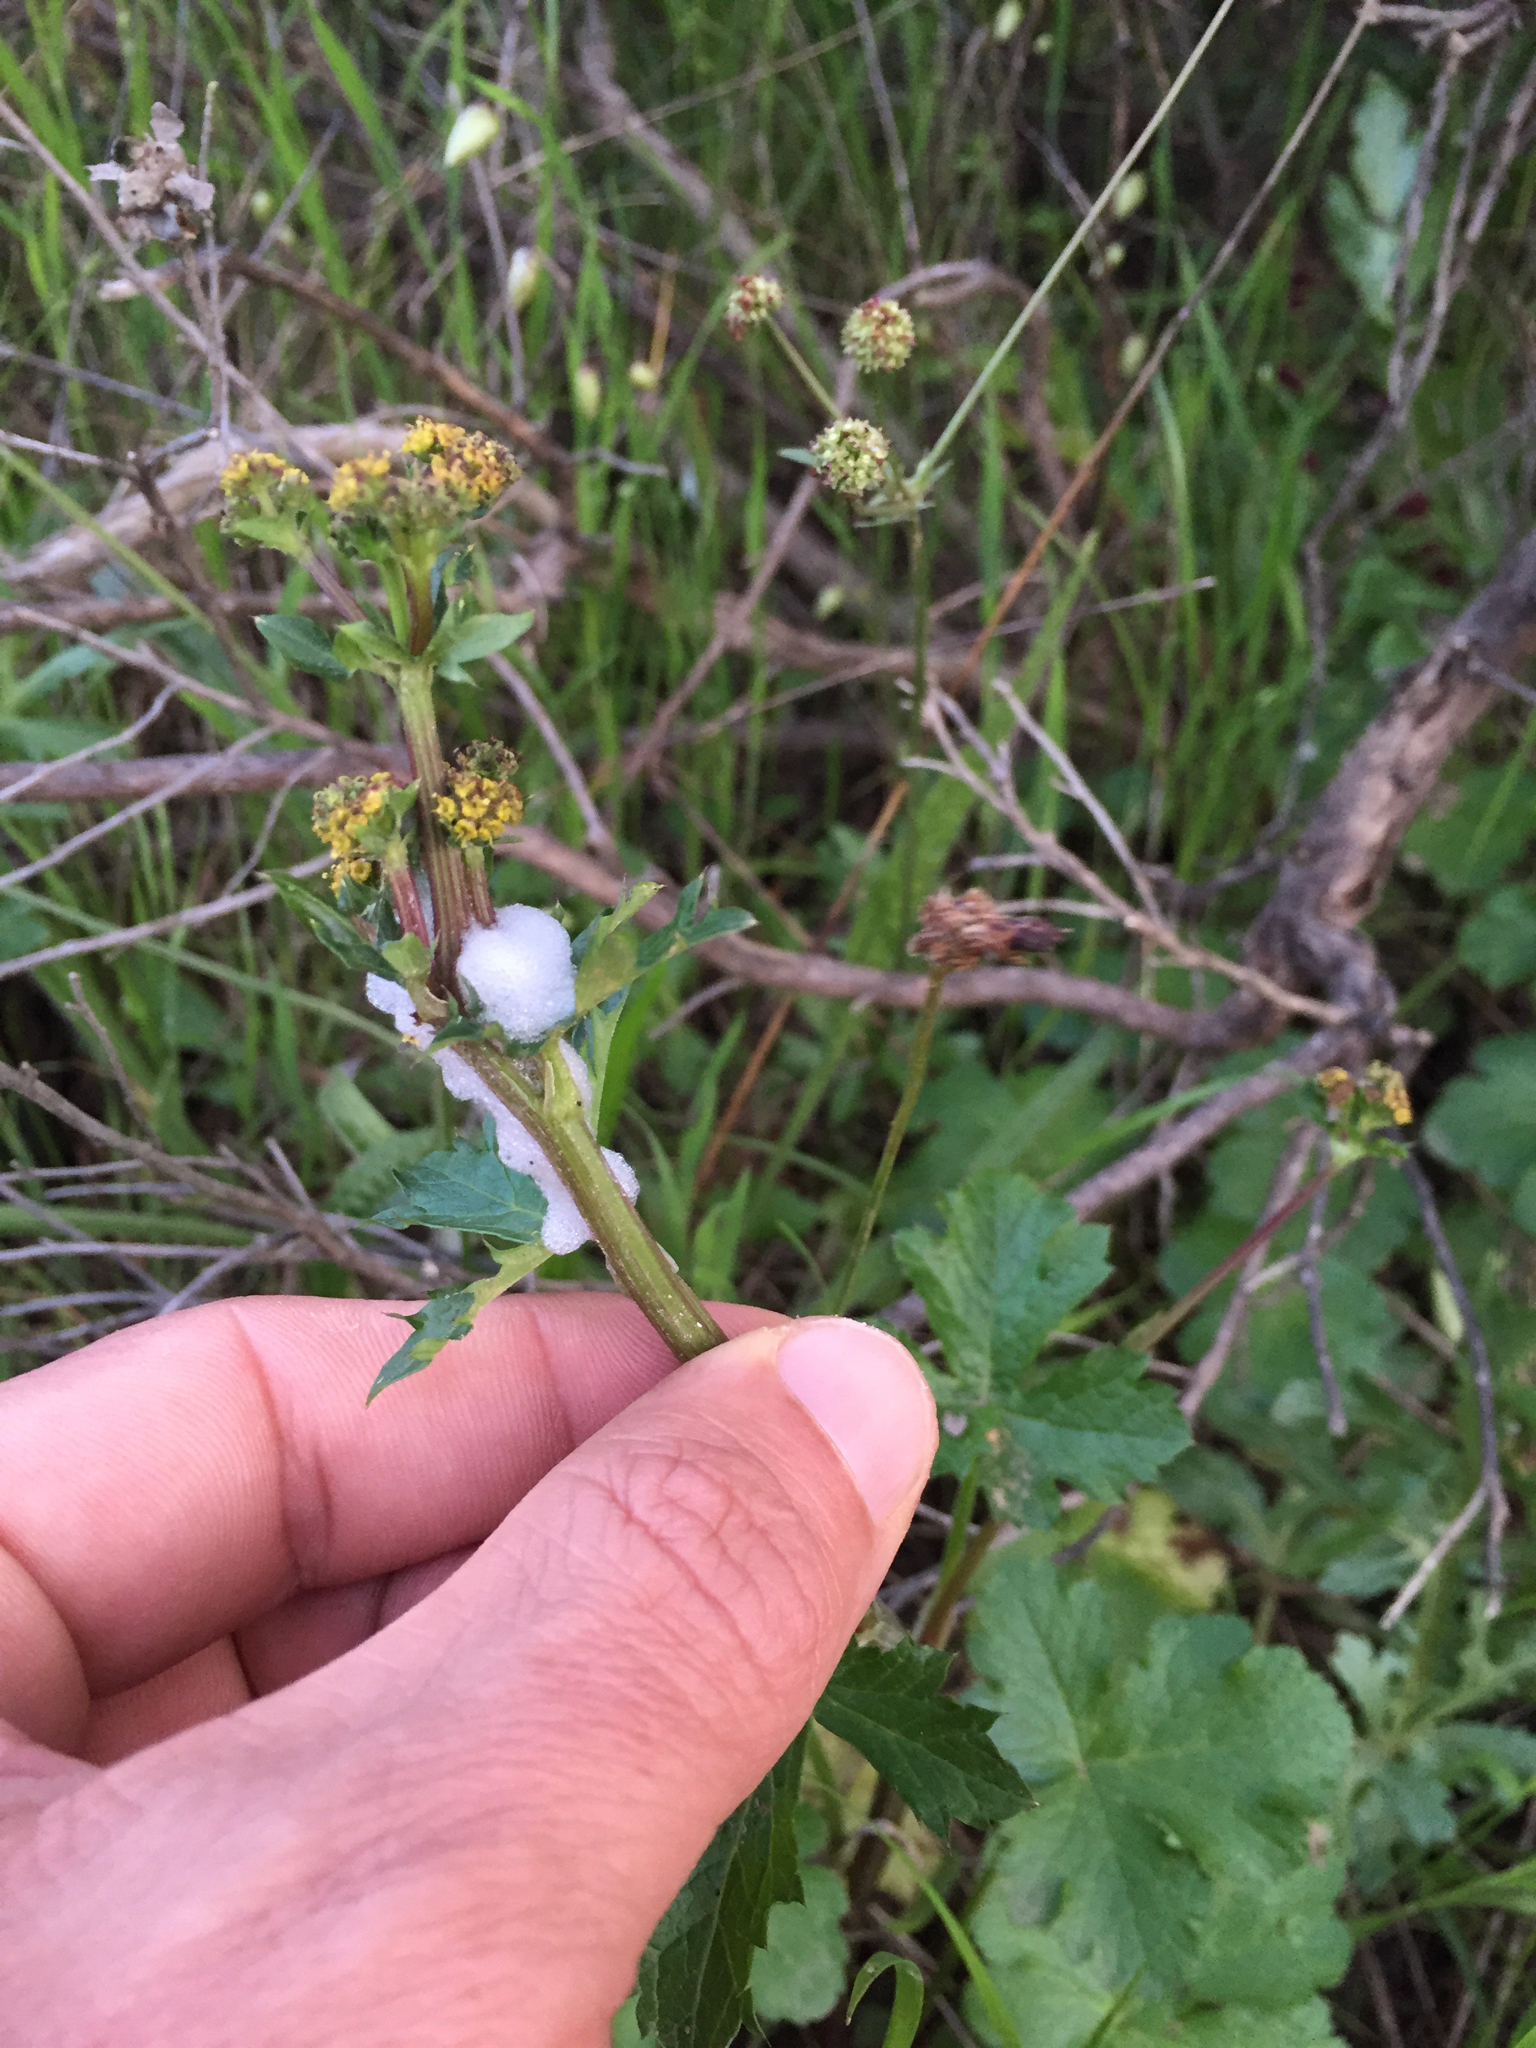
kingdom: Plantae
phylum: Tracheophyta
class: Magnoliopsida
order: Apiales
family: Apiaceae
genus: Sanicula
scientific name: Sanicula crassicaulis
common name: Western snakeroot
